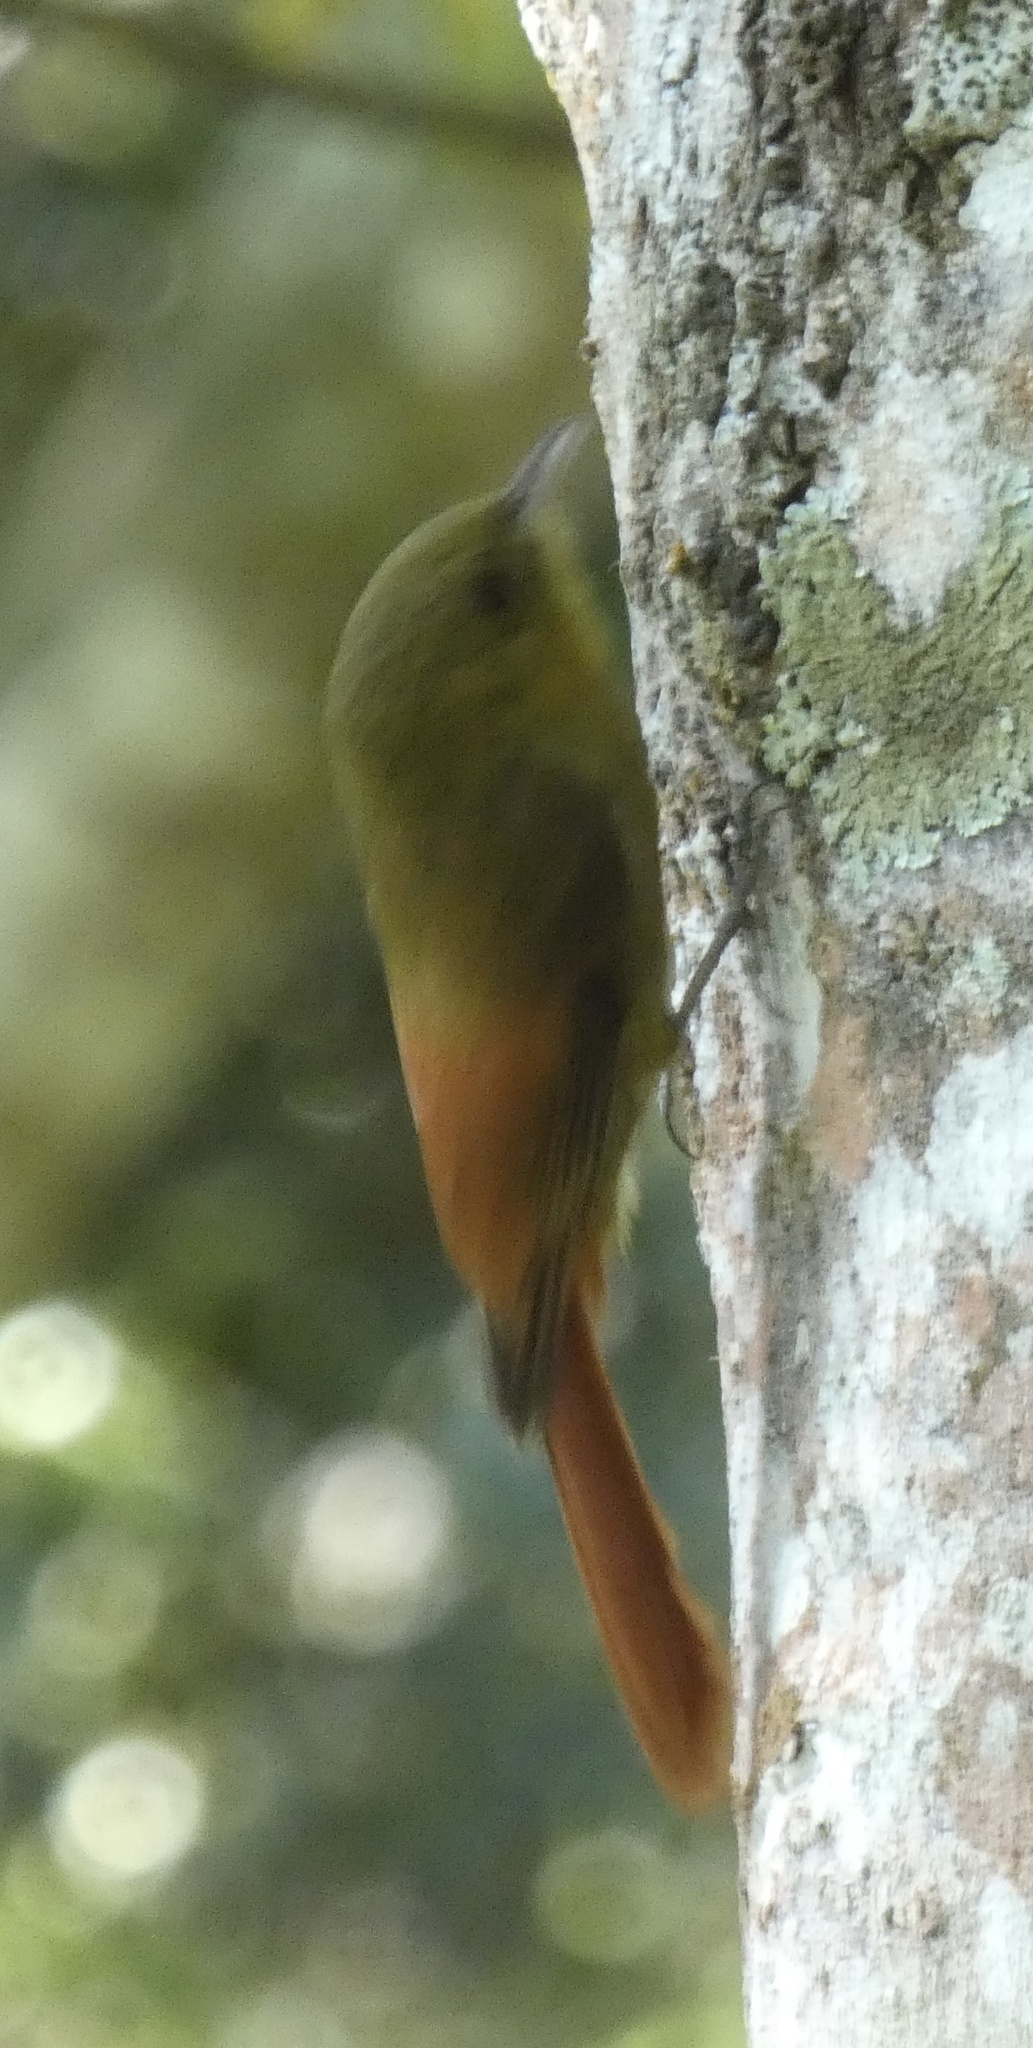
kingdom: Animalia
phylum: Chordata
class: Aves
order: Passeriformes
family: Furnariidae
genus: Sittasomus
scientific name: Sittasomus griseicapillus
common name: Olivaceous woodcreeper
